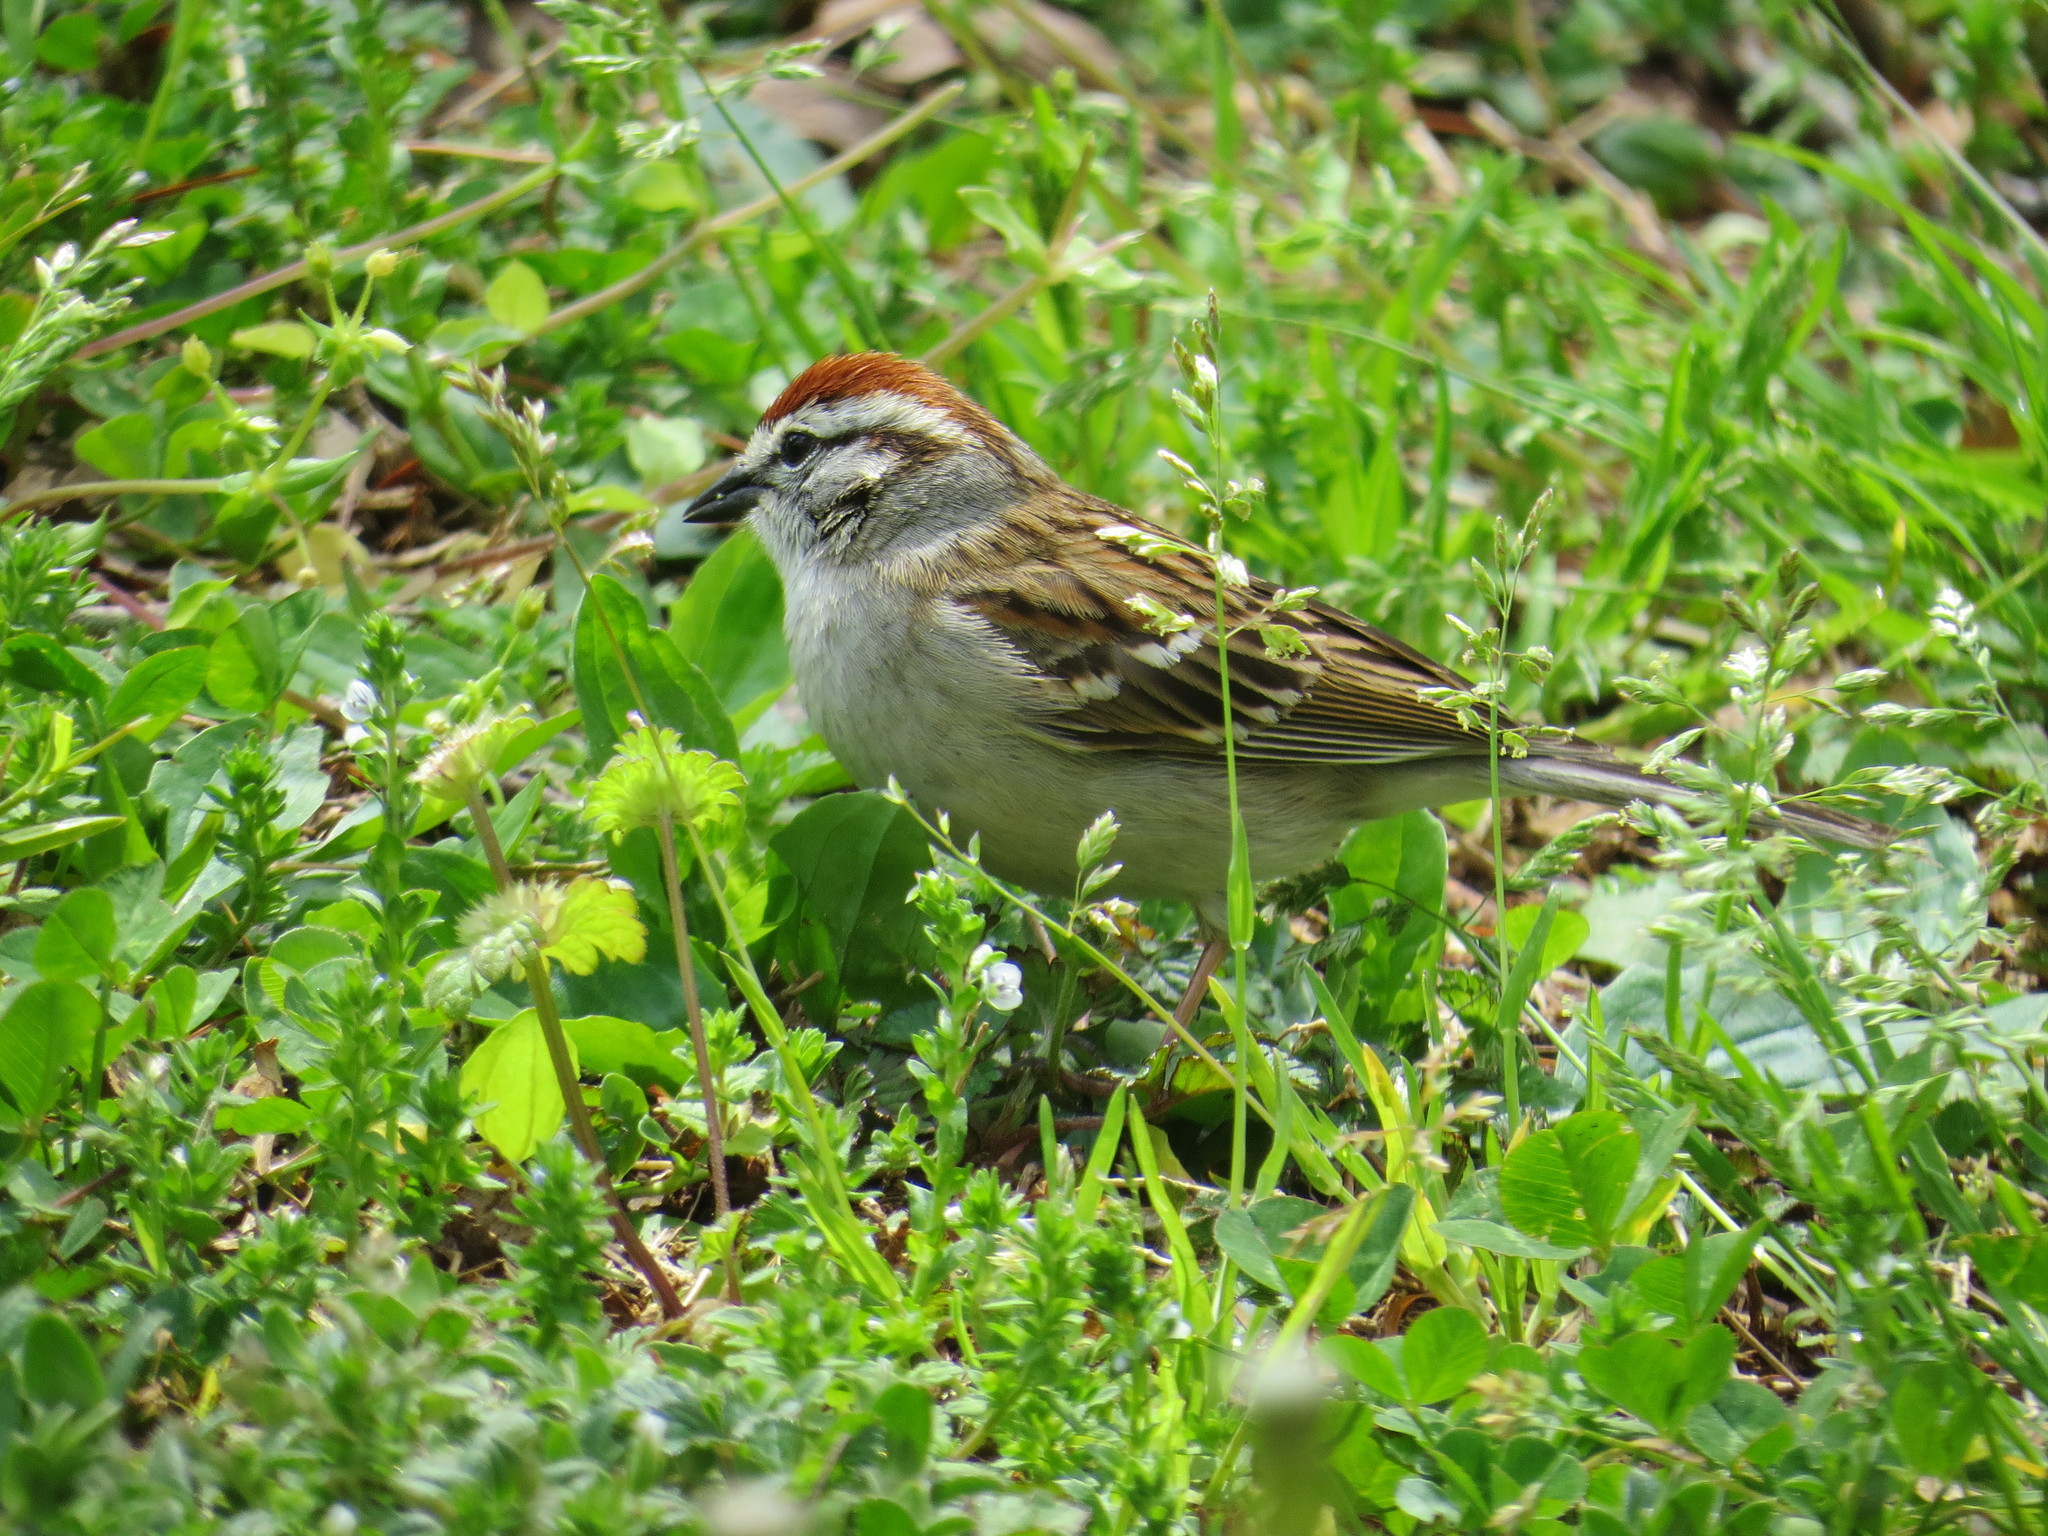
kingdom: Animalia
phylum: Chordata
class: Aves
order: Passeriformes
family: Passerellidae
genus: Spizella
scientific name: Spizella passerina
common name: Chipping sparrow
